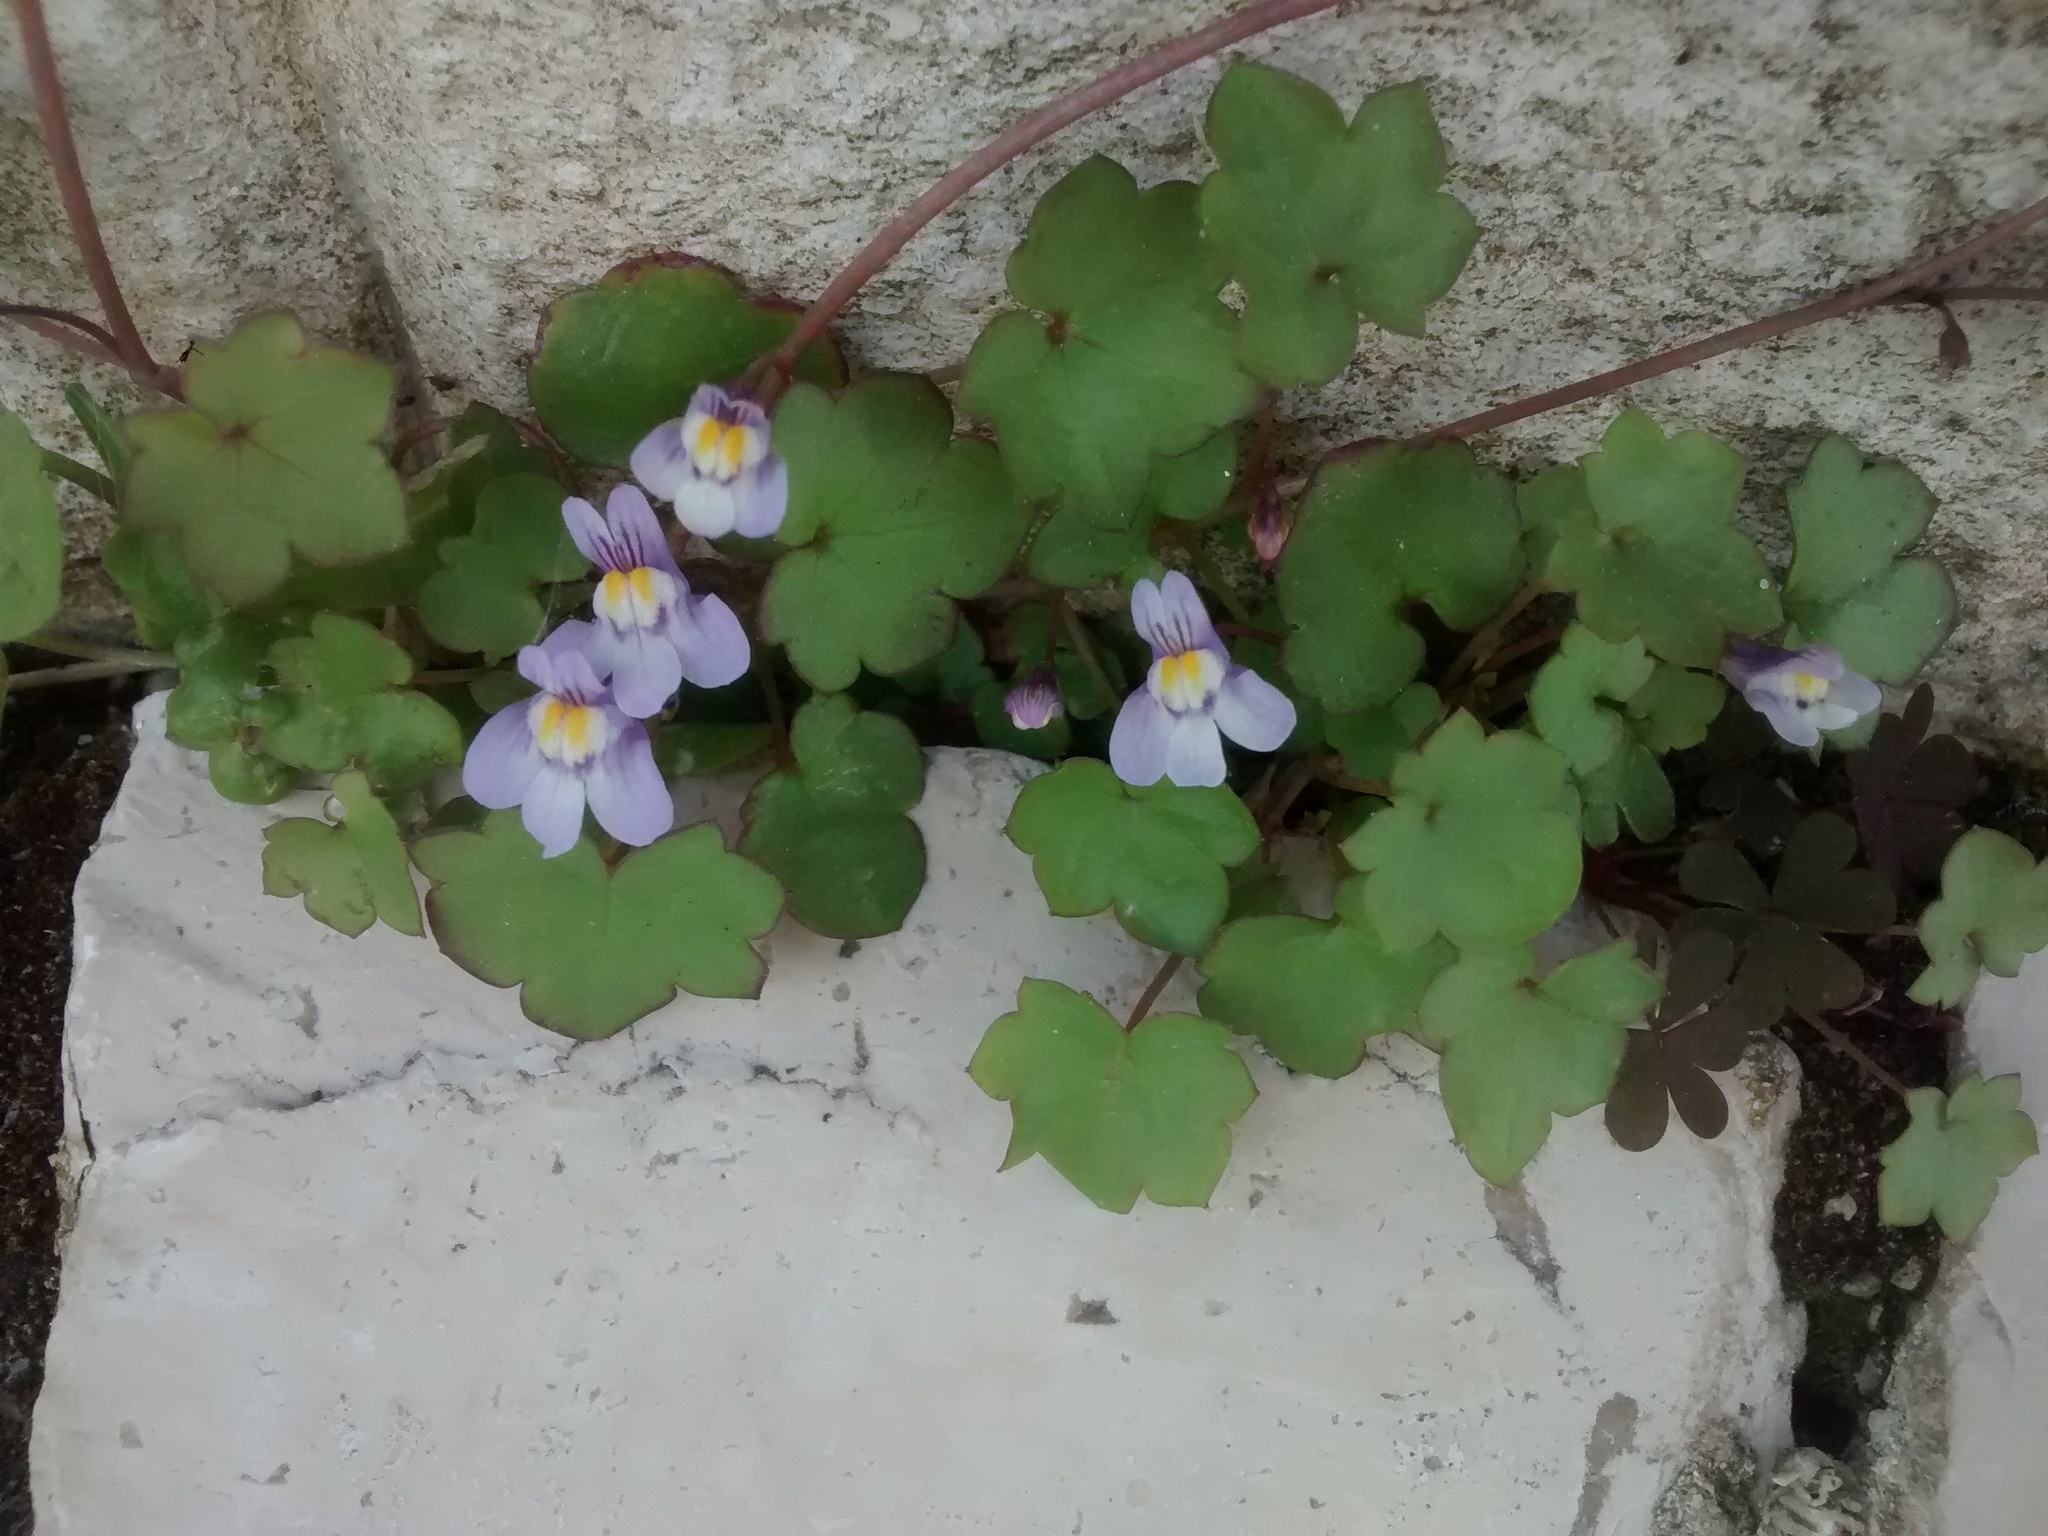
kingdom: Plantae
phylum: Tracheophyta
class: Magnoliopsida
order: Lamiales
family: Plantaginaceae
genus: Cymbalaria
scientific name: Cymbalaria muralis
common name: Ivy-leaved toadflax
